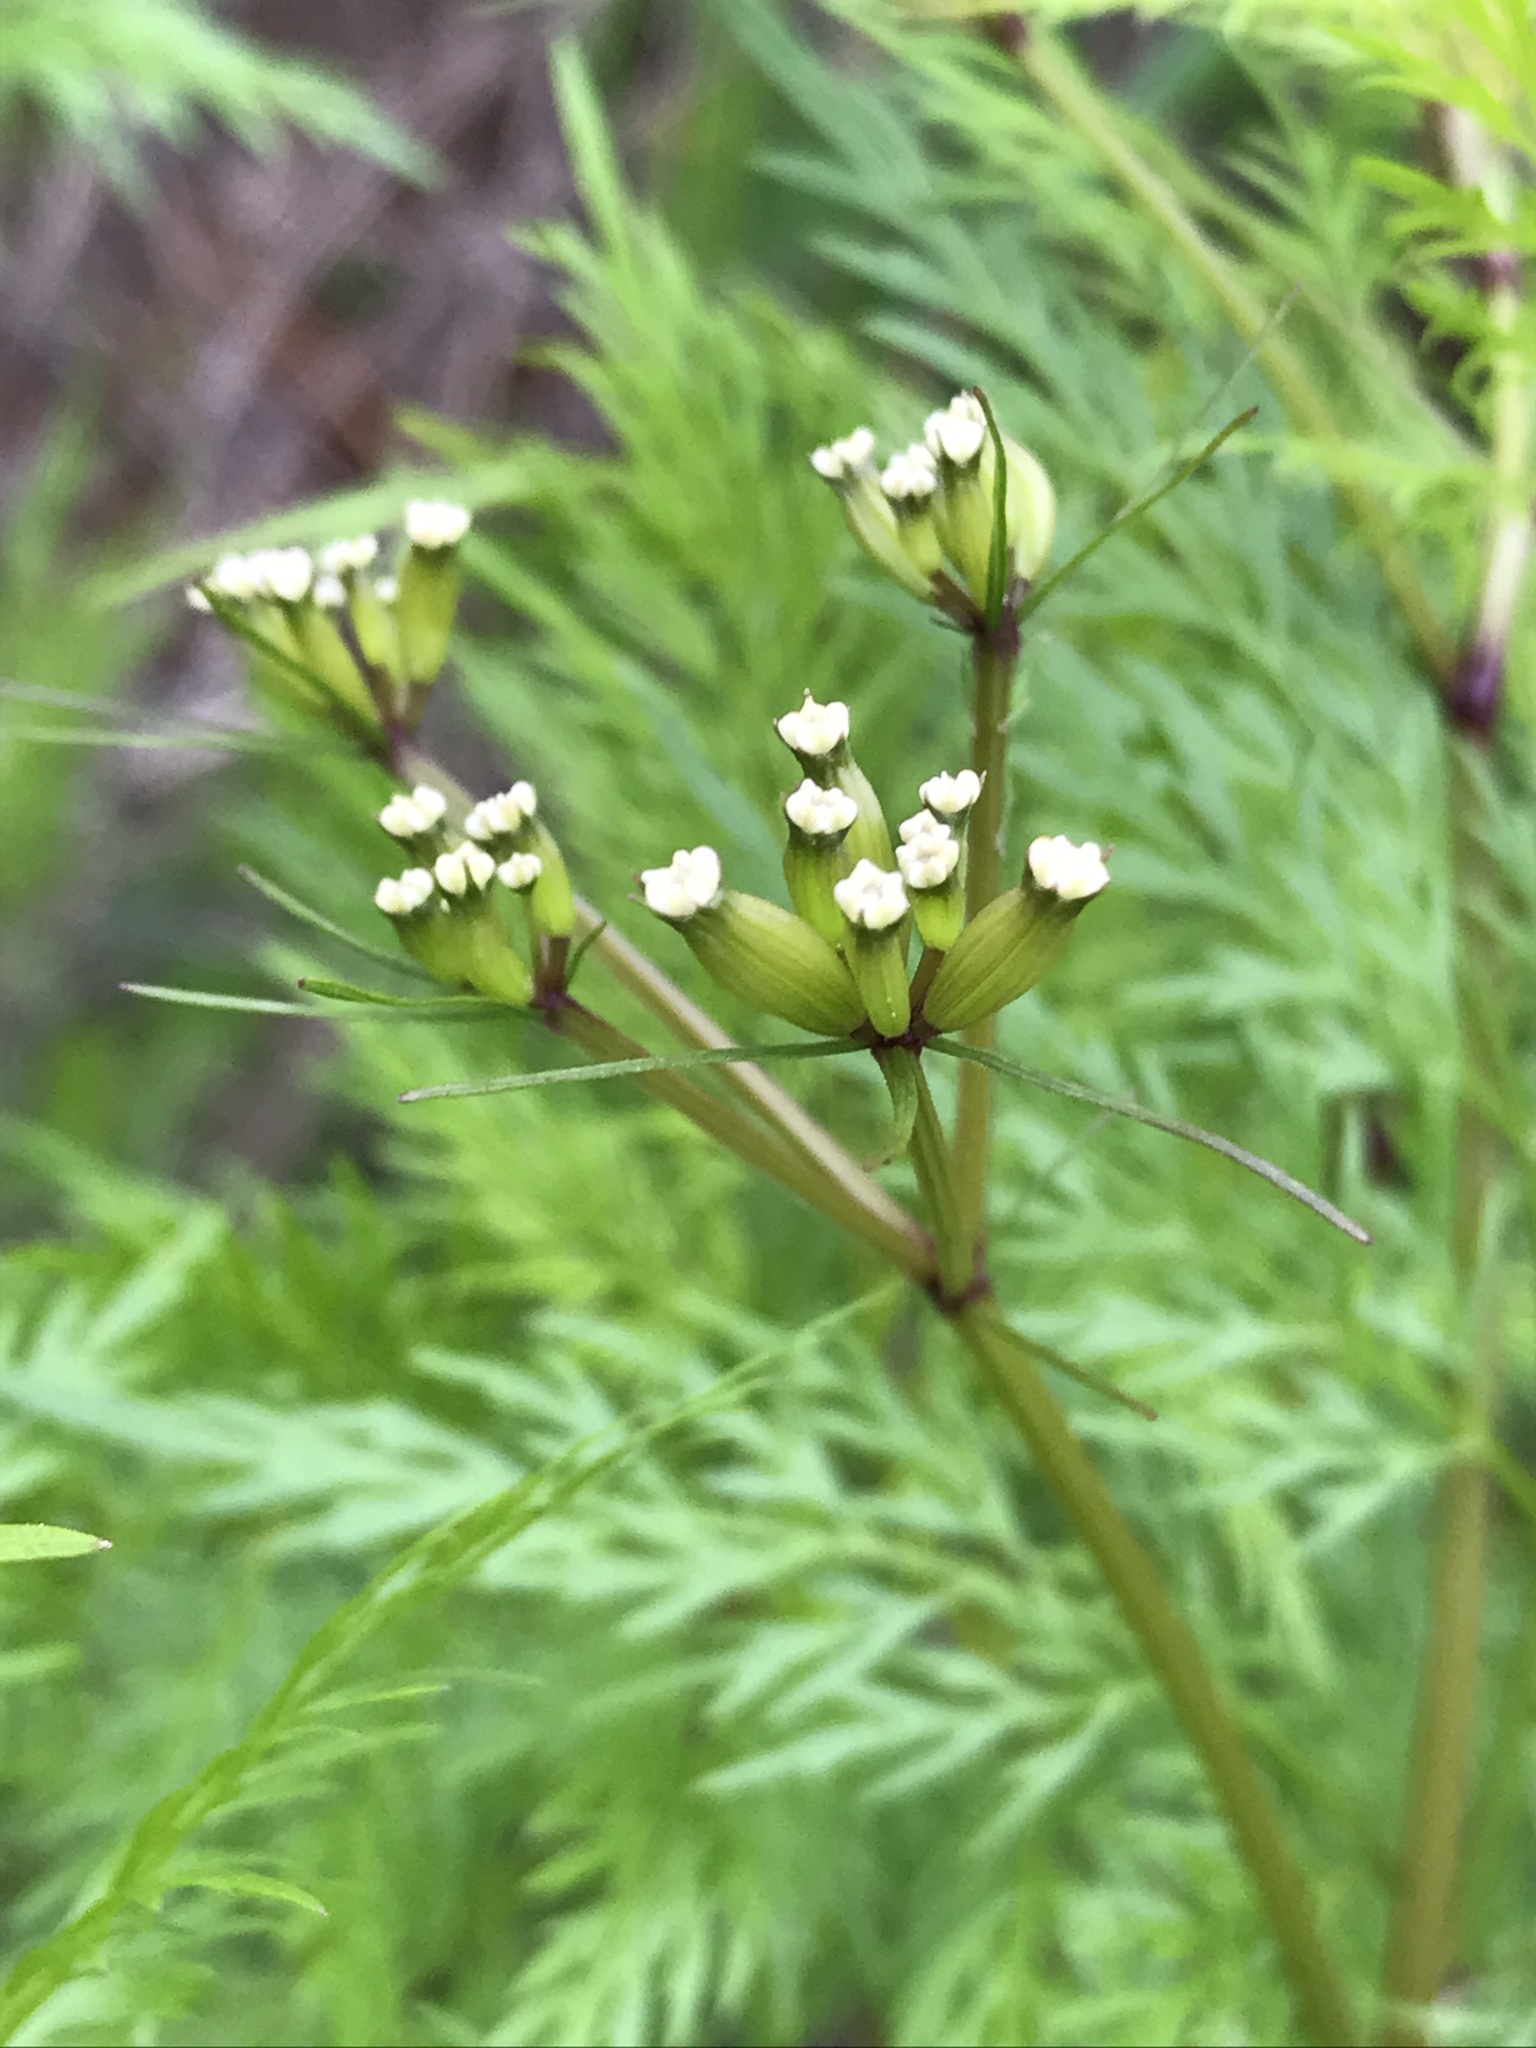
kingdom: Plantae
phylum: Tracheophyta
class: Magnoliopsida
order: Apiales
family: Apiaceae
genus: Trepocarpus
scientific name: Trepocarpus aethusae
